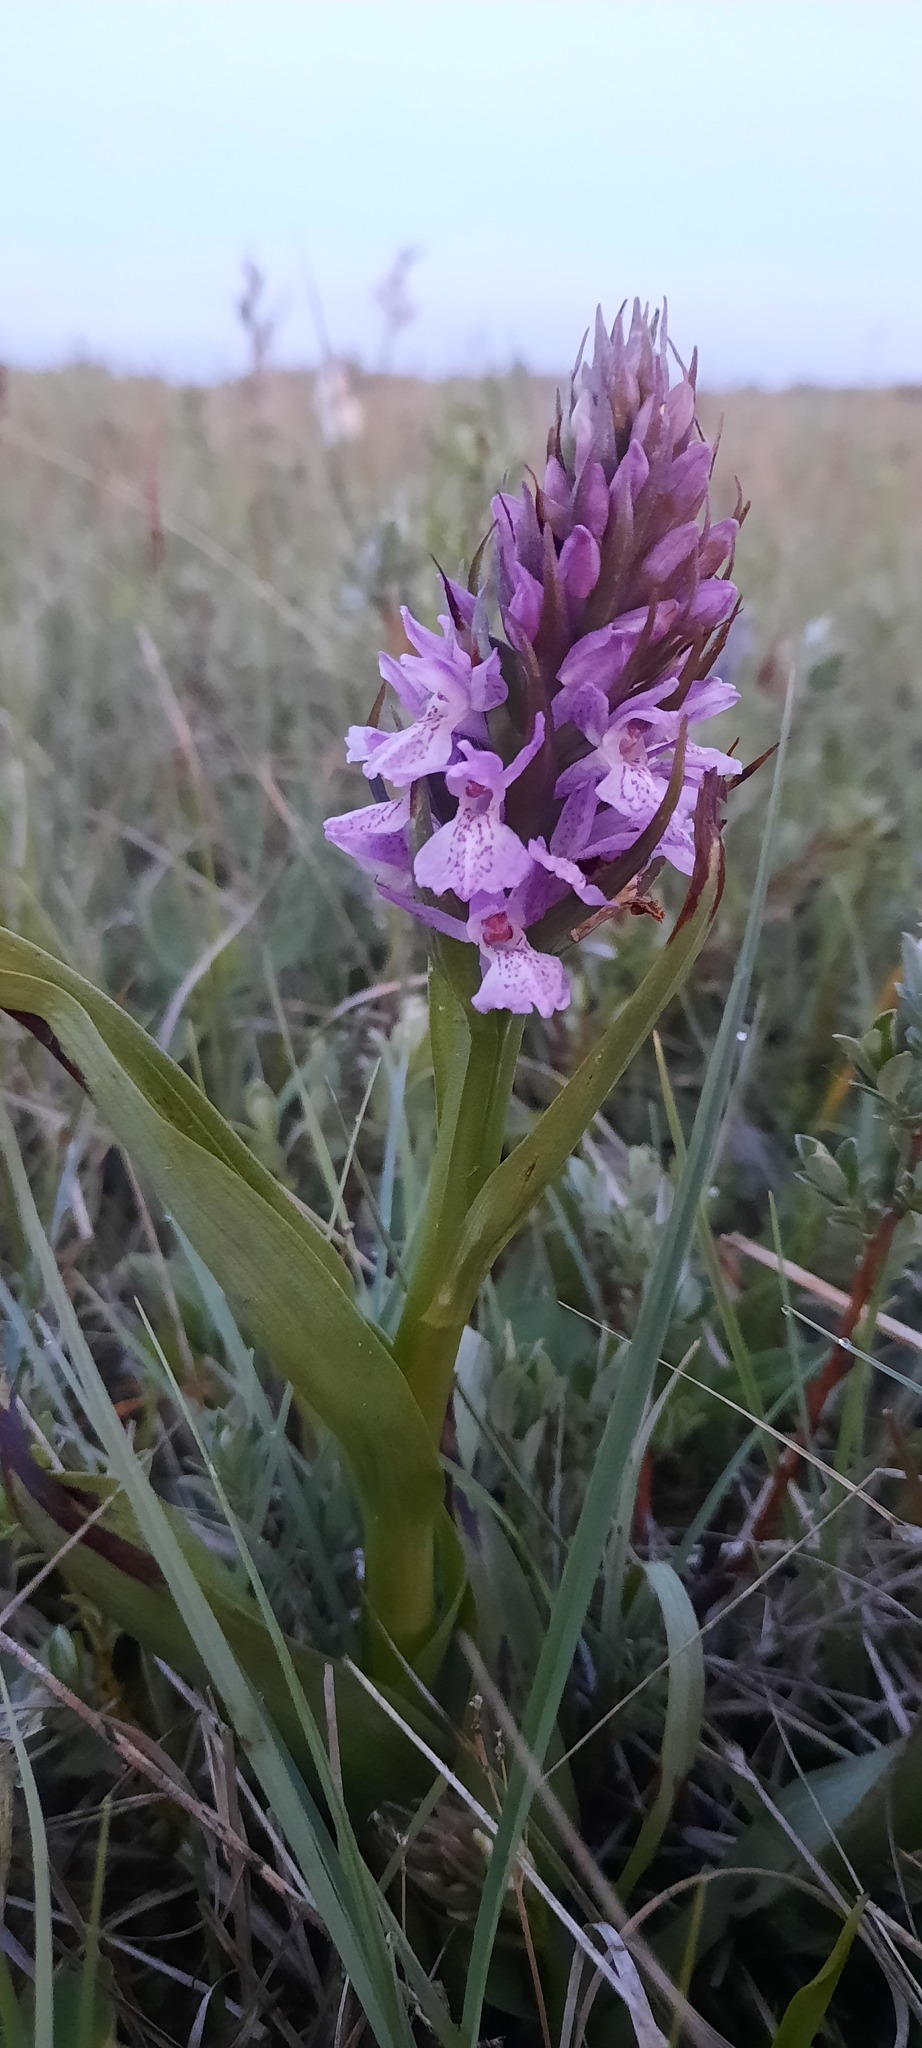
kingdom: Plantae
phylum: Tracheophyta
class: Liliopsida
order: Asparagales
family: Orchidaceae
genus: Dactylorhiza
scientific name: Dactylorhiza incarnata
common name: Early marsh-orchid
